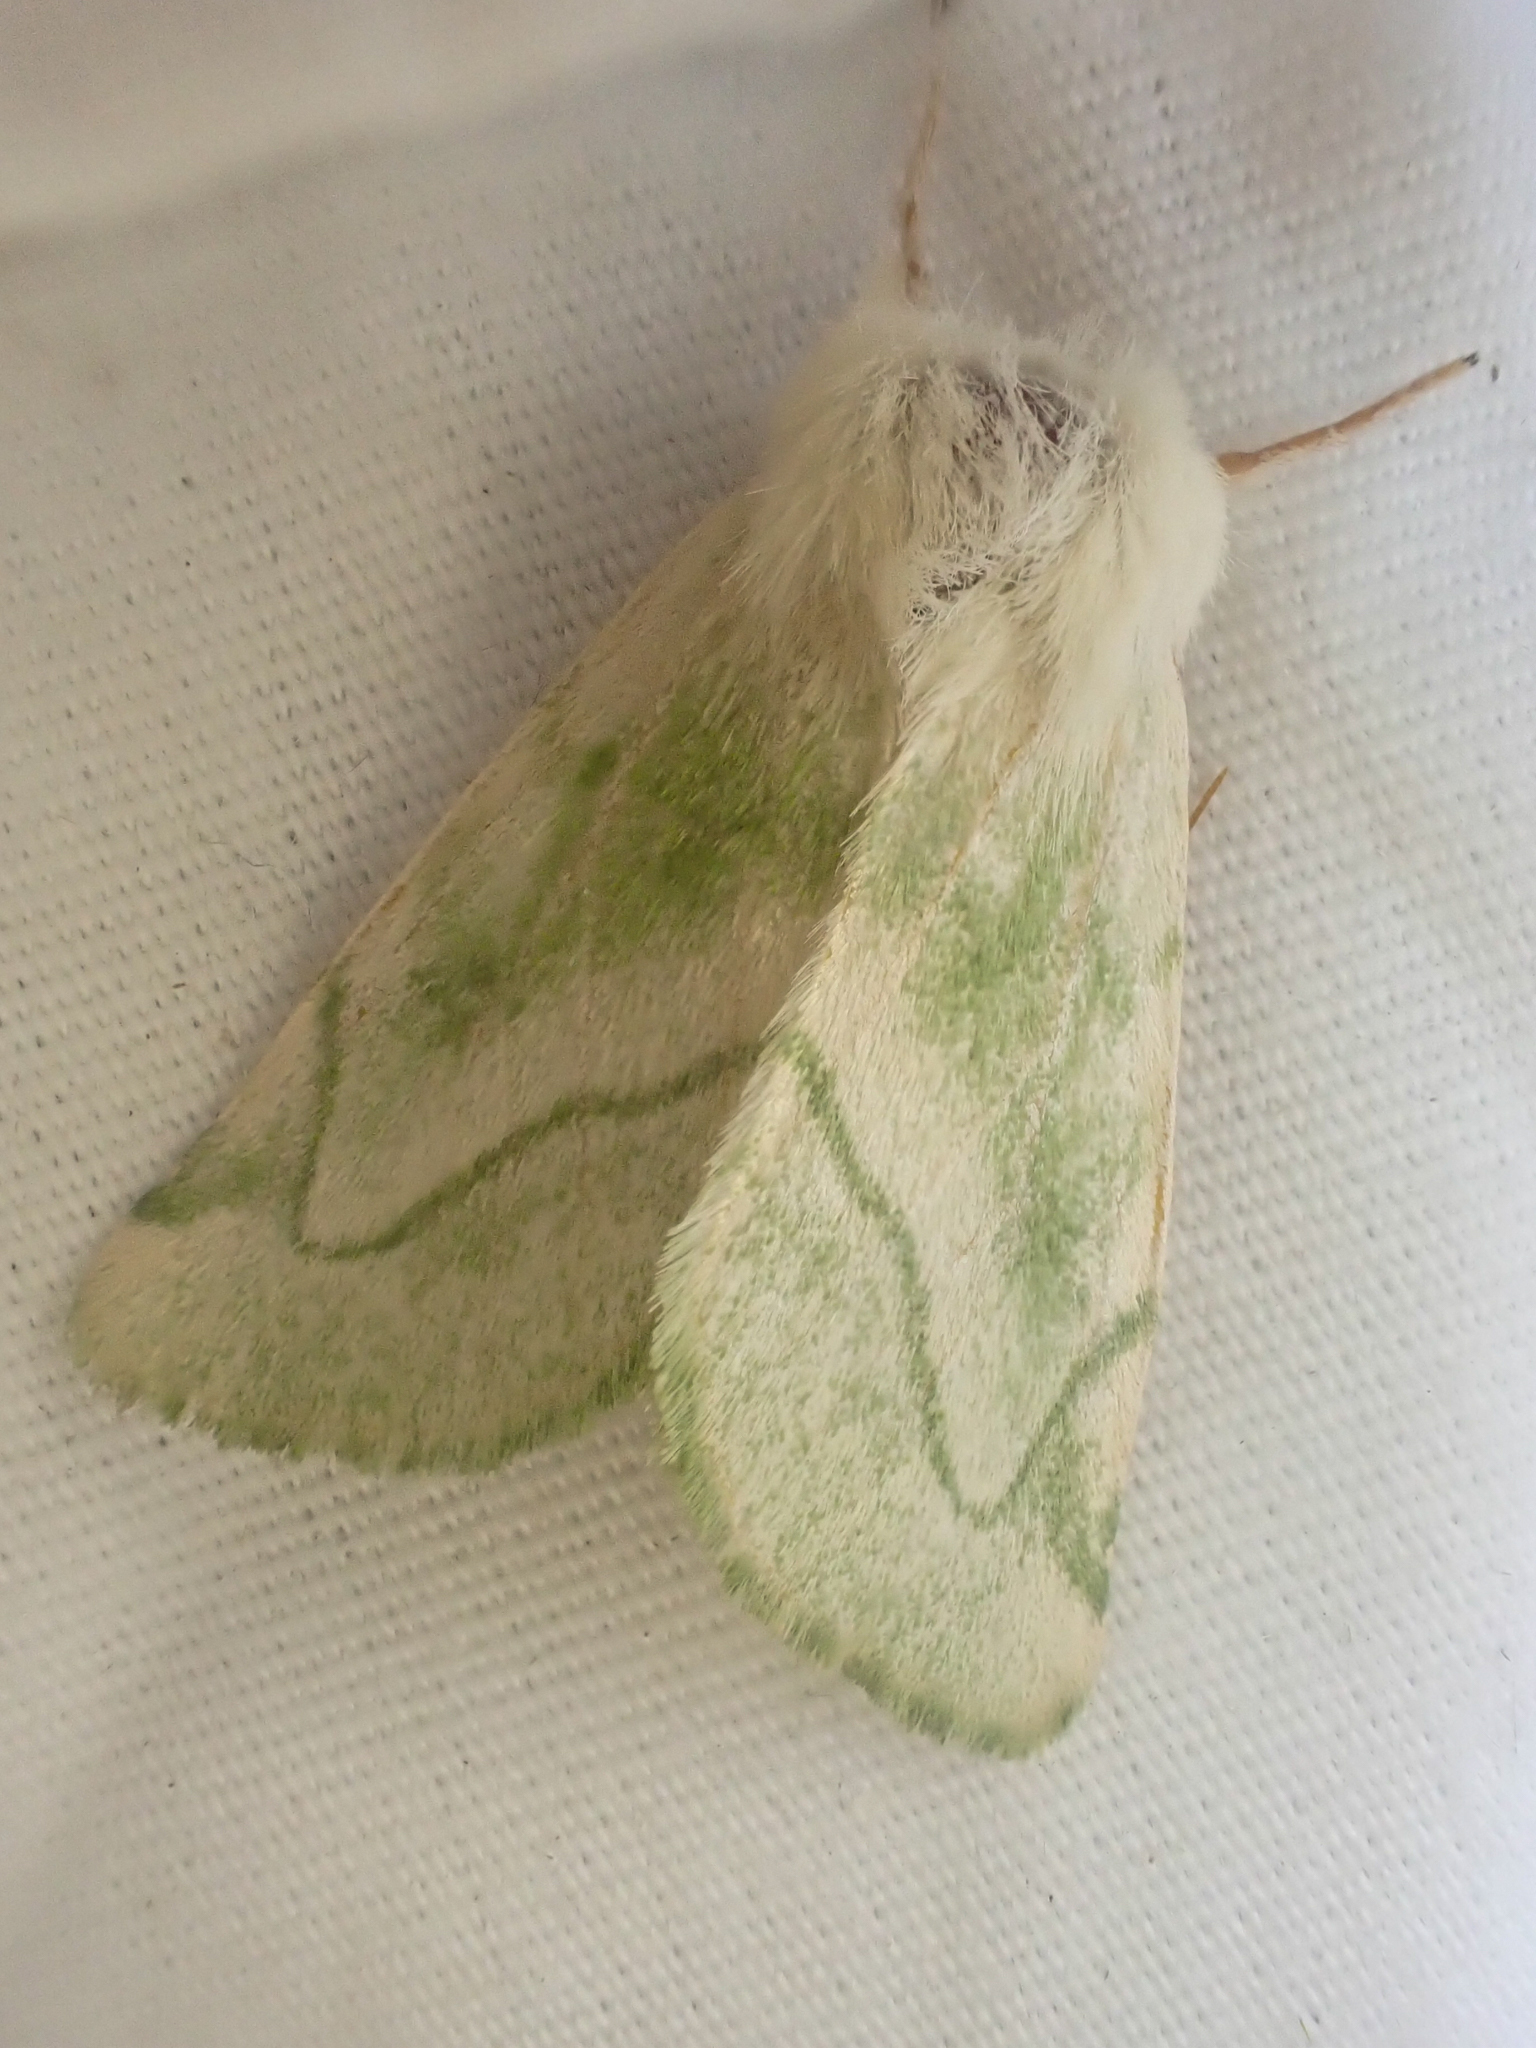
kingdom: Animalia
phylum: Arthropoda
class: Insecta
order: Lepidoptera
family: Noctuidae
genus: Zotheca
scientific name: Zotheca tranquilla
